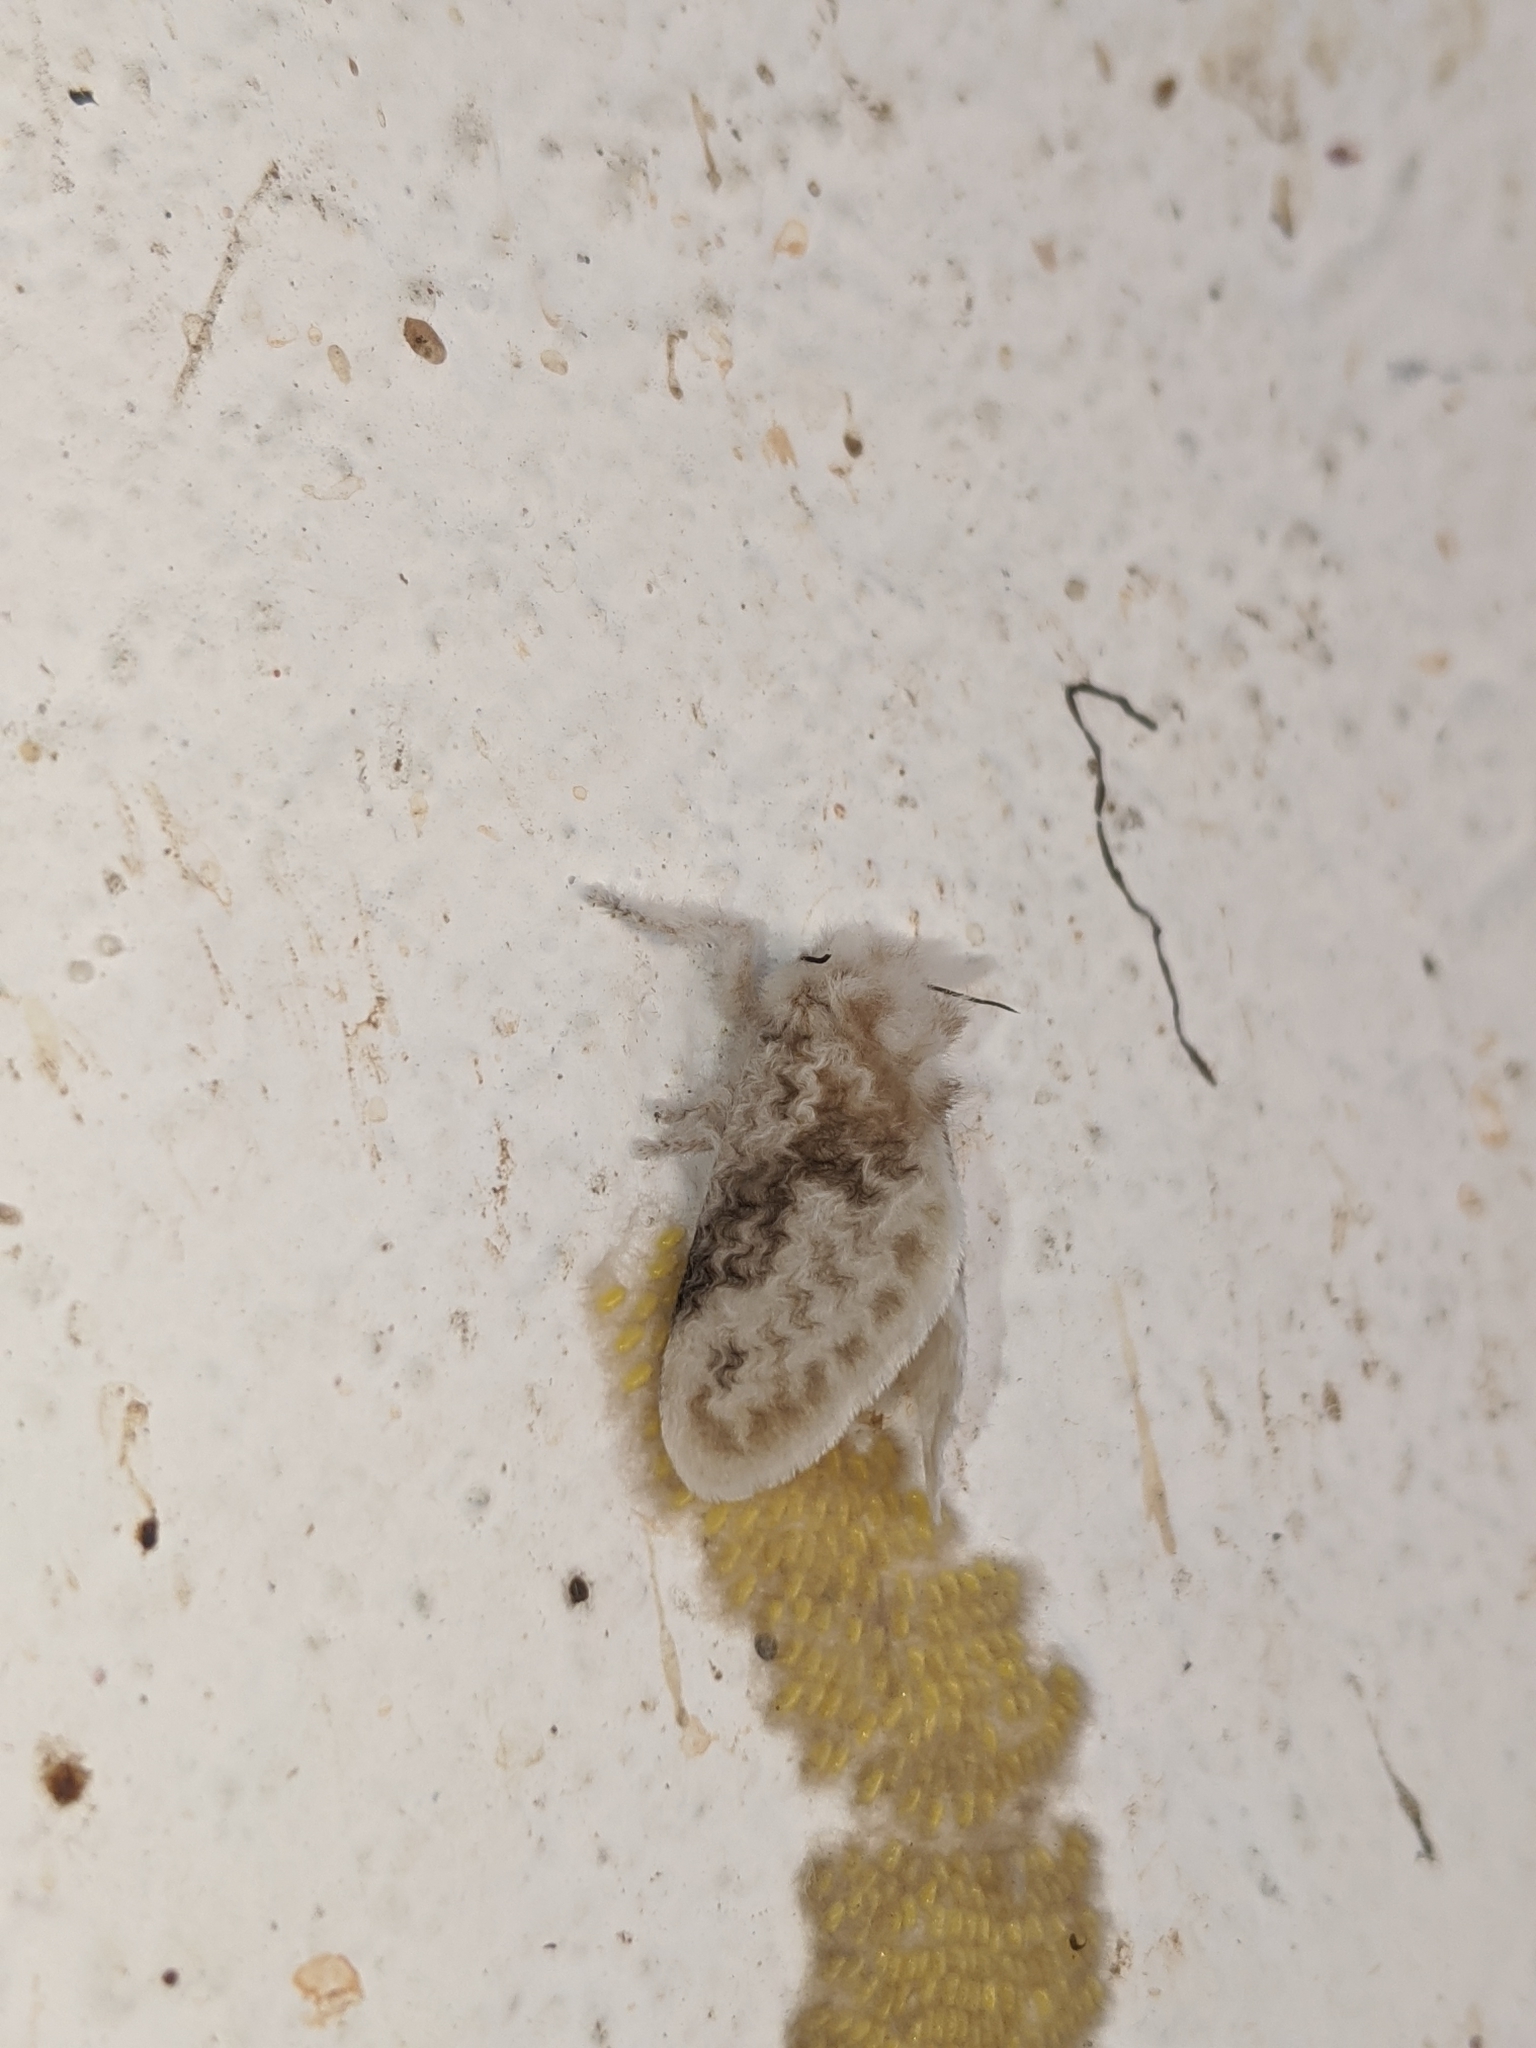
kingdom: Animalia
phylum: Arthropoda
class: Insecta
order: Lepidoptera
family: Megalopygidae
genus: Megalopyge
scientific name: Megalopyge ravida
